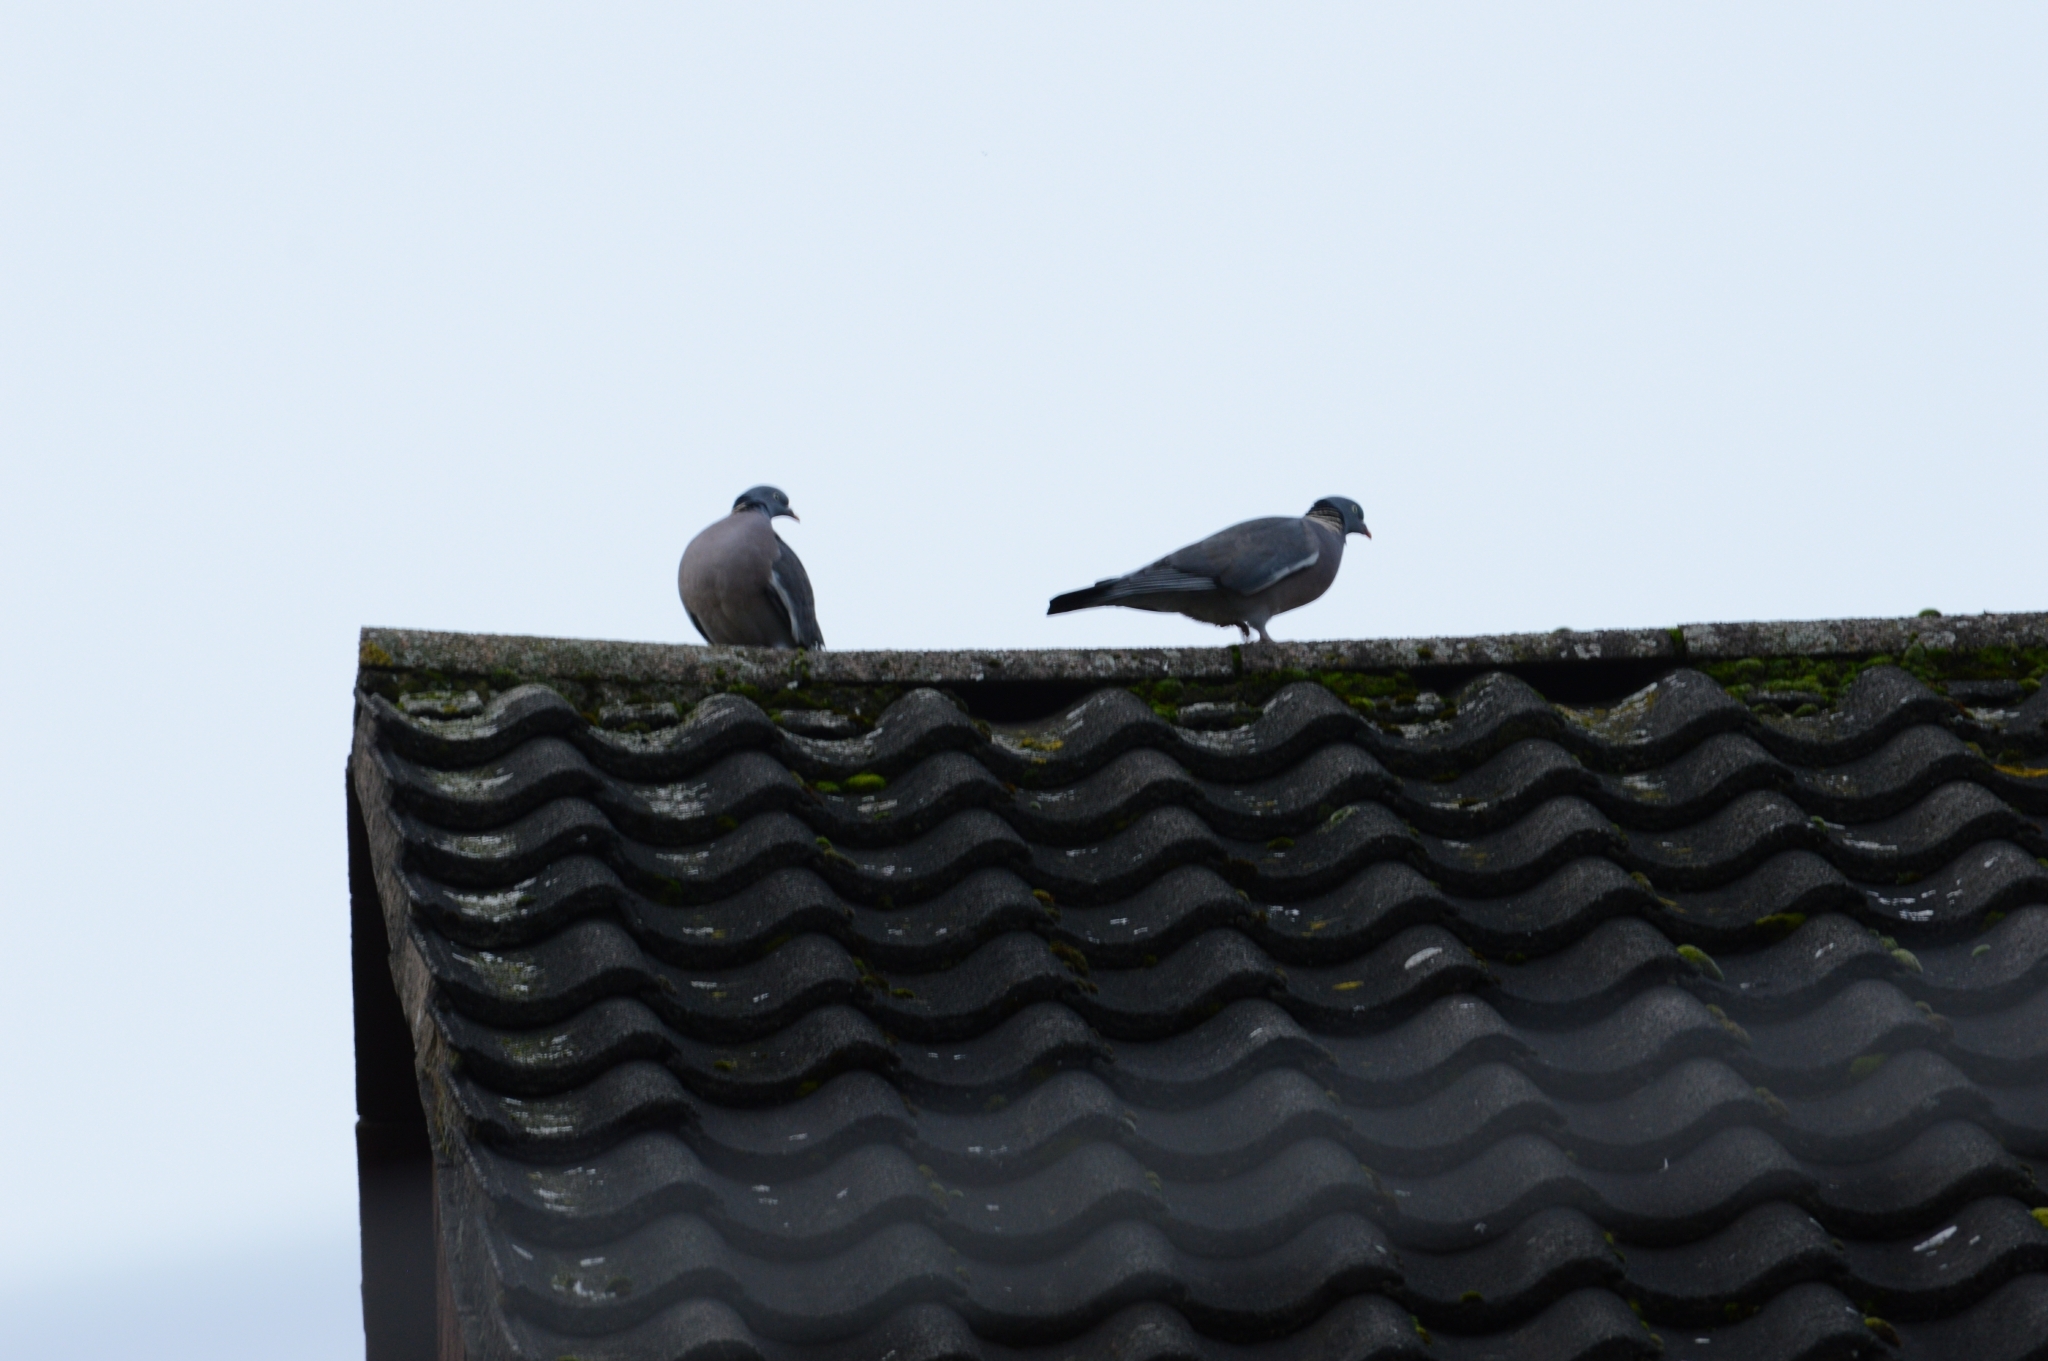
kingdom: Animalia
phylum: Chordata
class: Aves
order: Columbiformes
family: Columbidae
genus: Columba
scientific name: Columba palumbus
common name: Common wood pigeon
